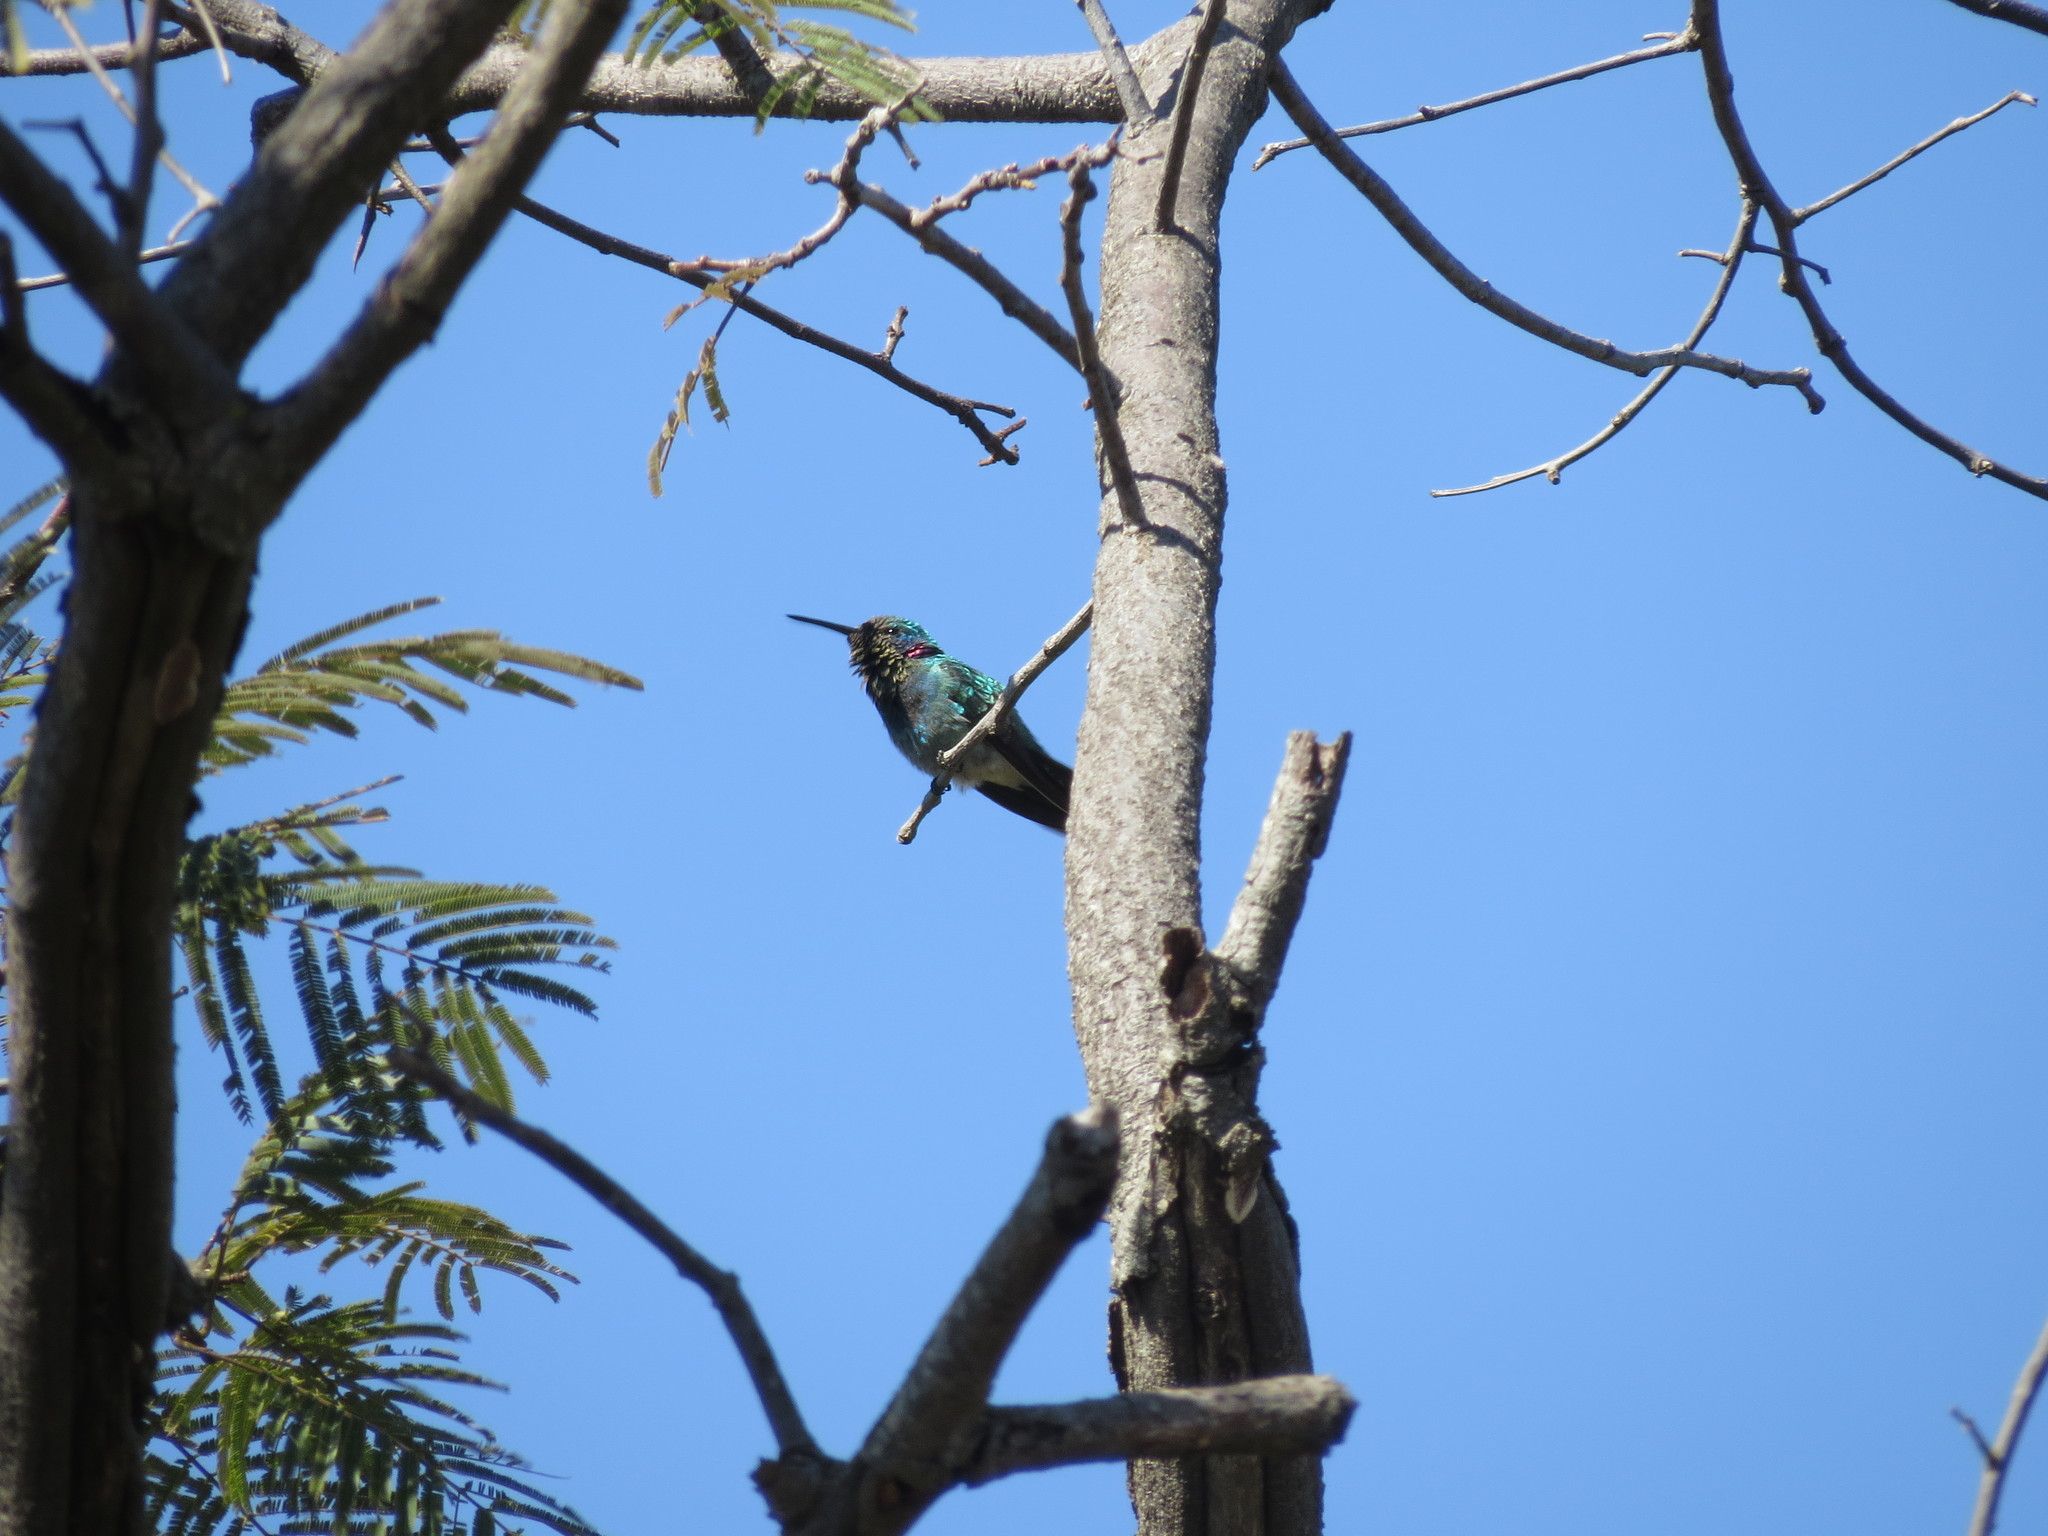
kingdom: Animalia
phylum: Chordata
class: Aves
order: Apodiformes
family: Trochilidae
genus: Colibri
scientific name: Colibri serrirostris
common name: White-vented violetear
